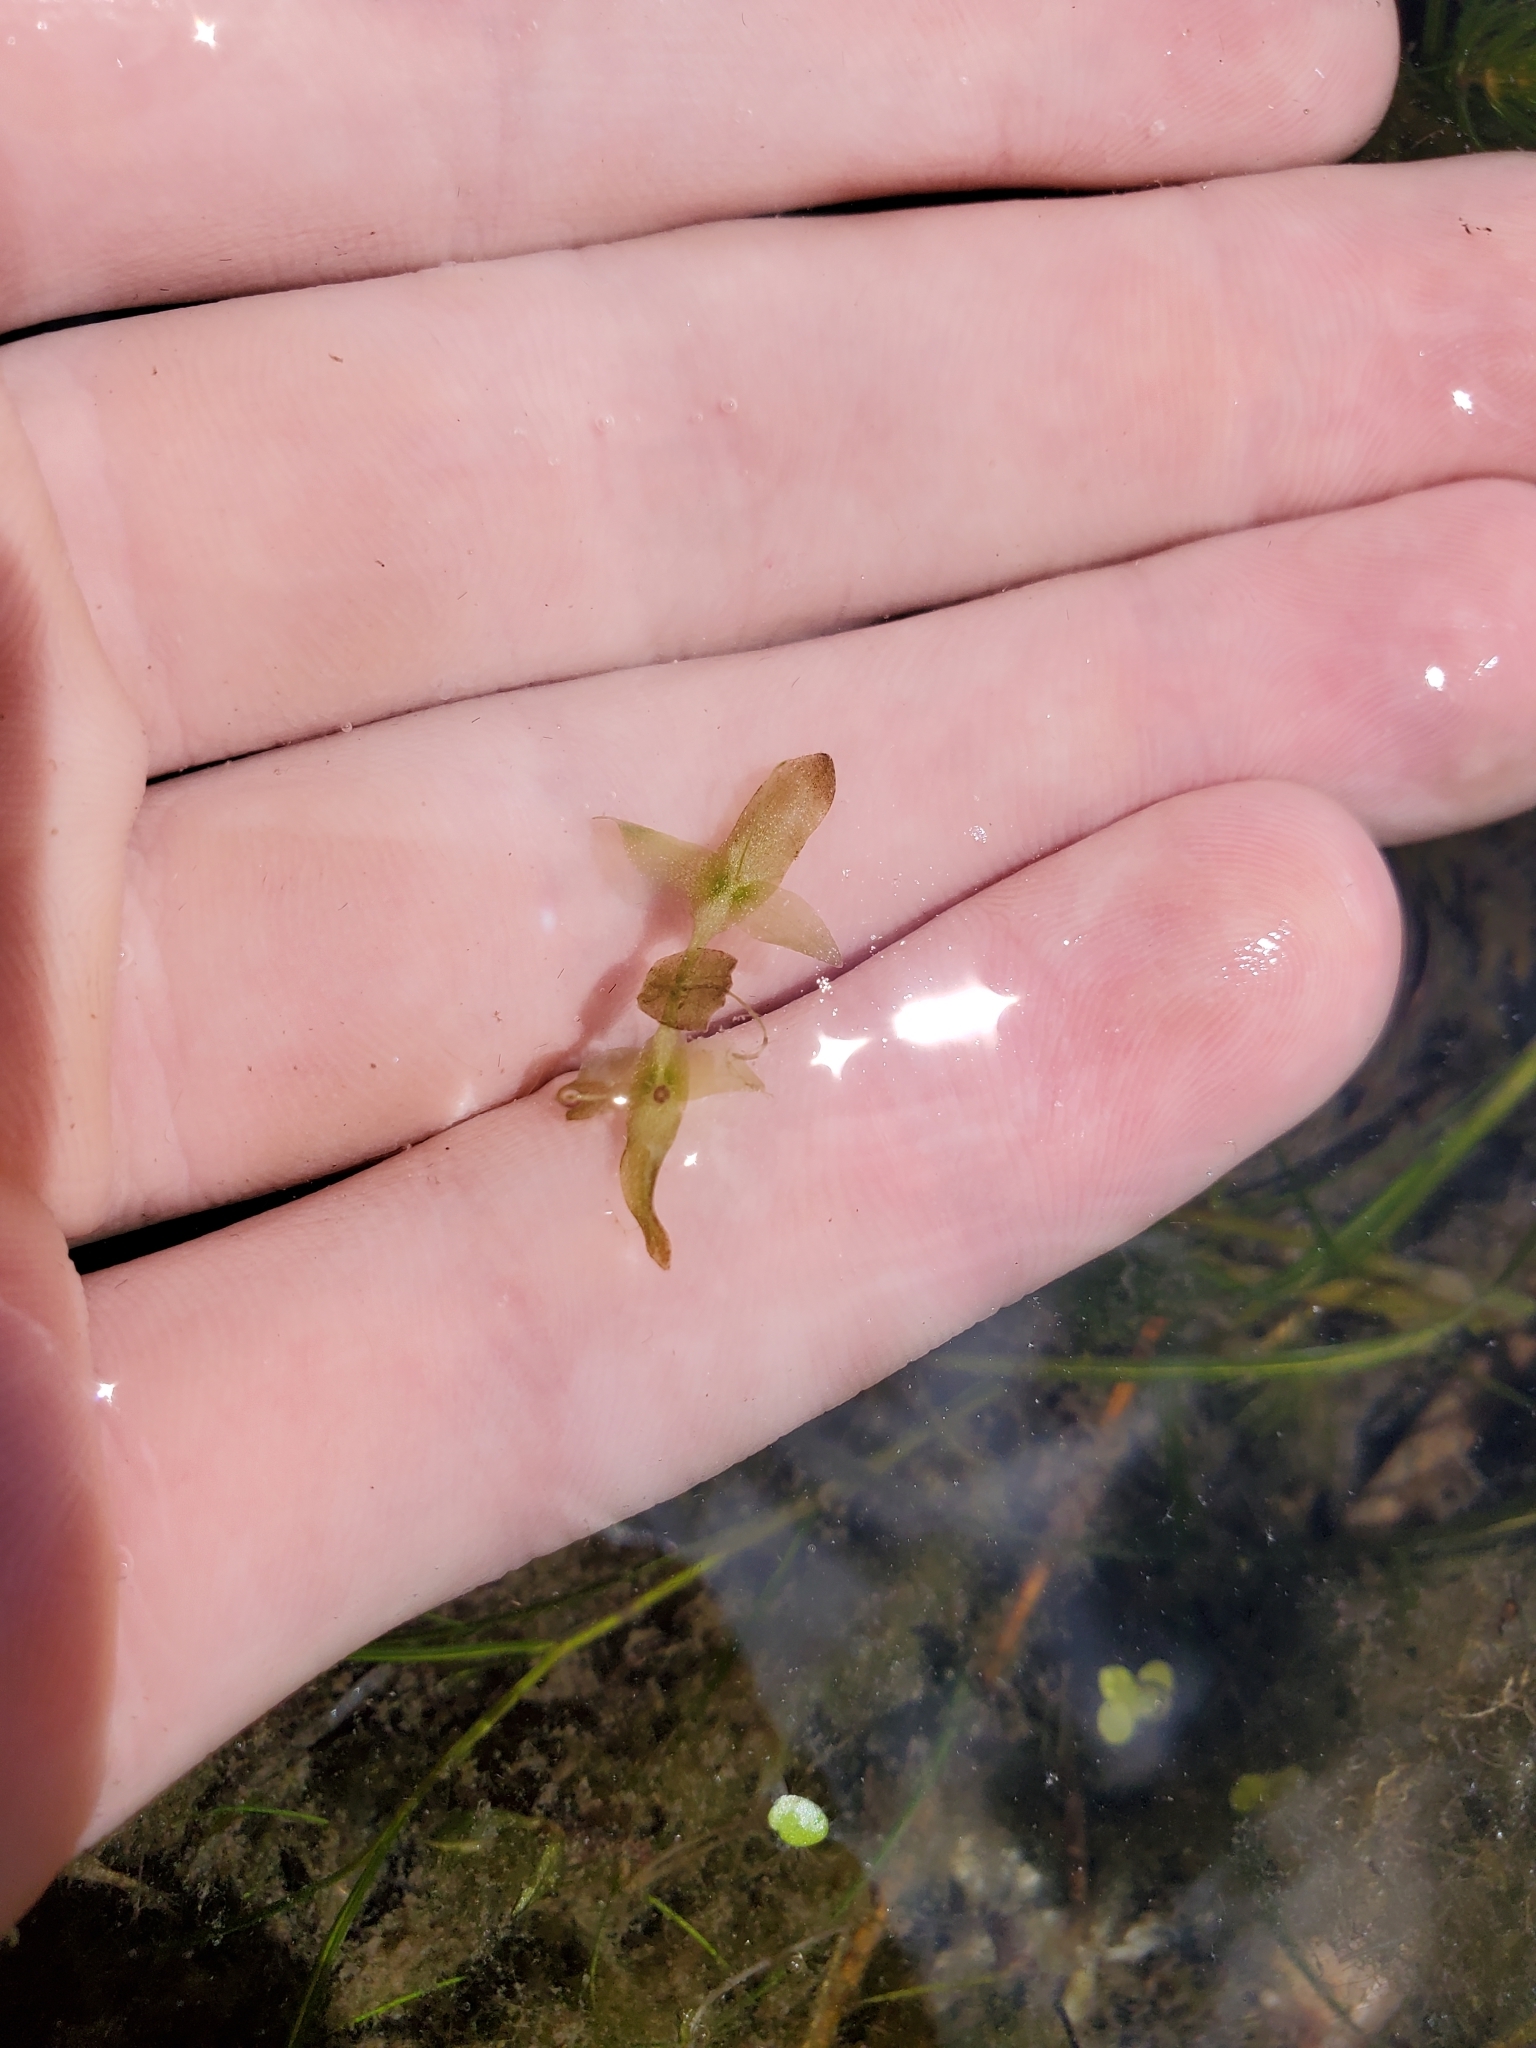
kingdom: Plantae
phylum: Tracheophyta
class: Liliopsida
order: Alismatales
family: Araceae
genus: Lemna
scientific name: Lemna trisulca
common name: Ivy-leaved duckweed
